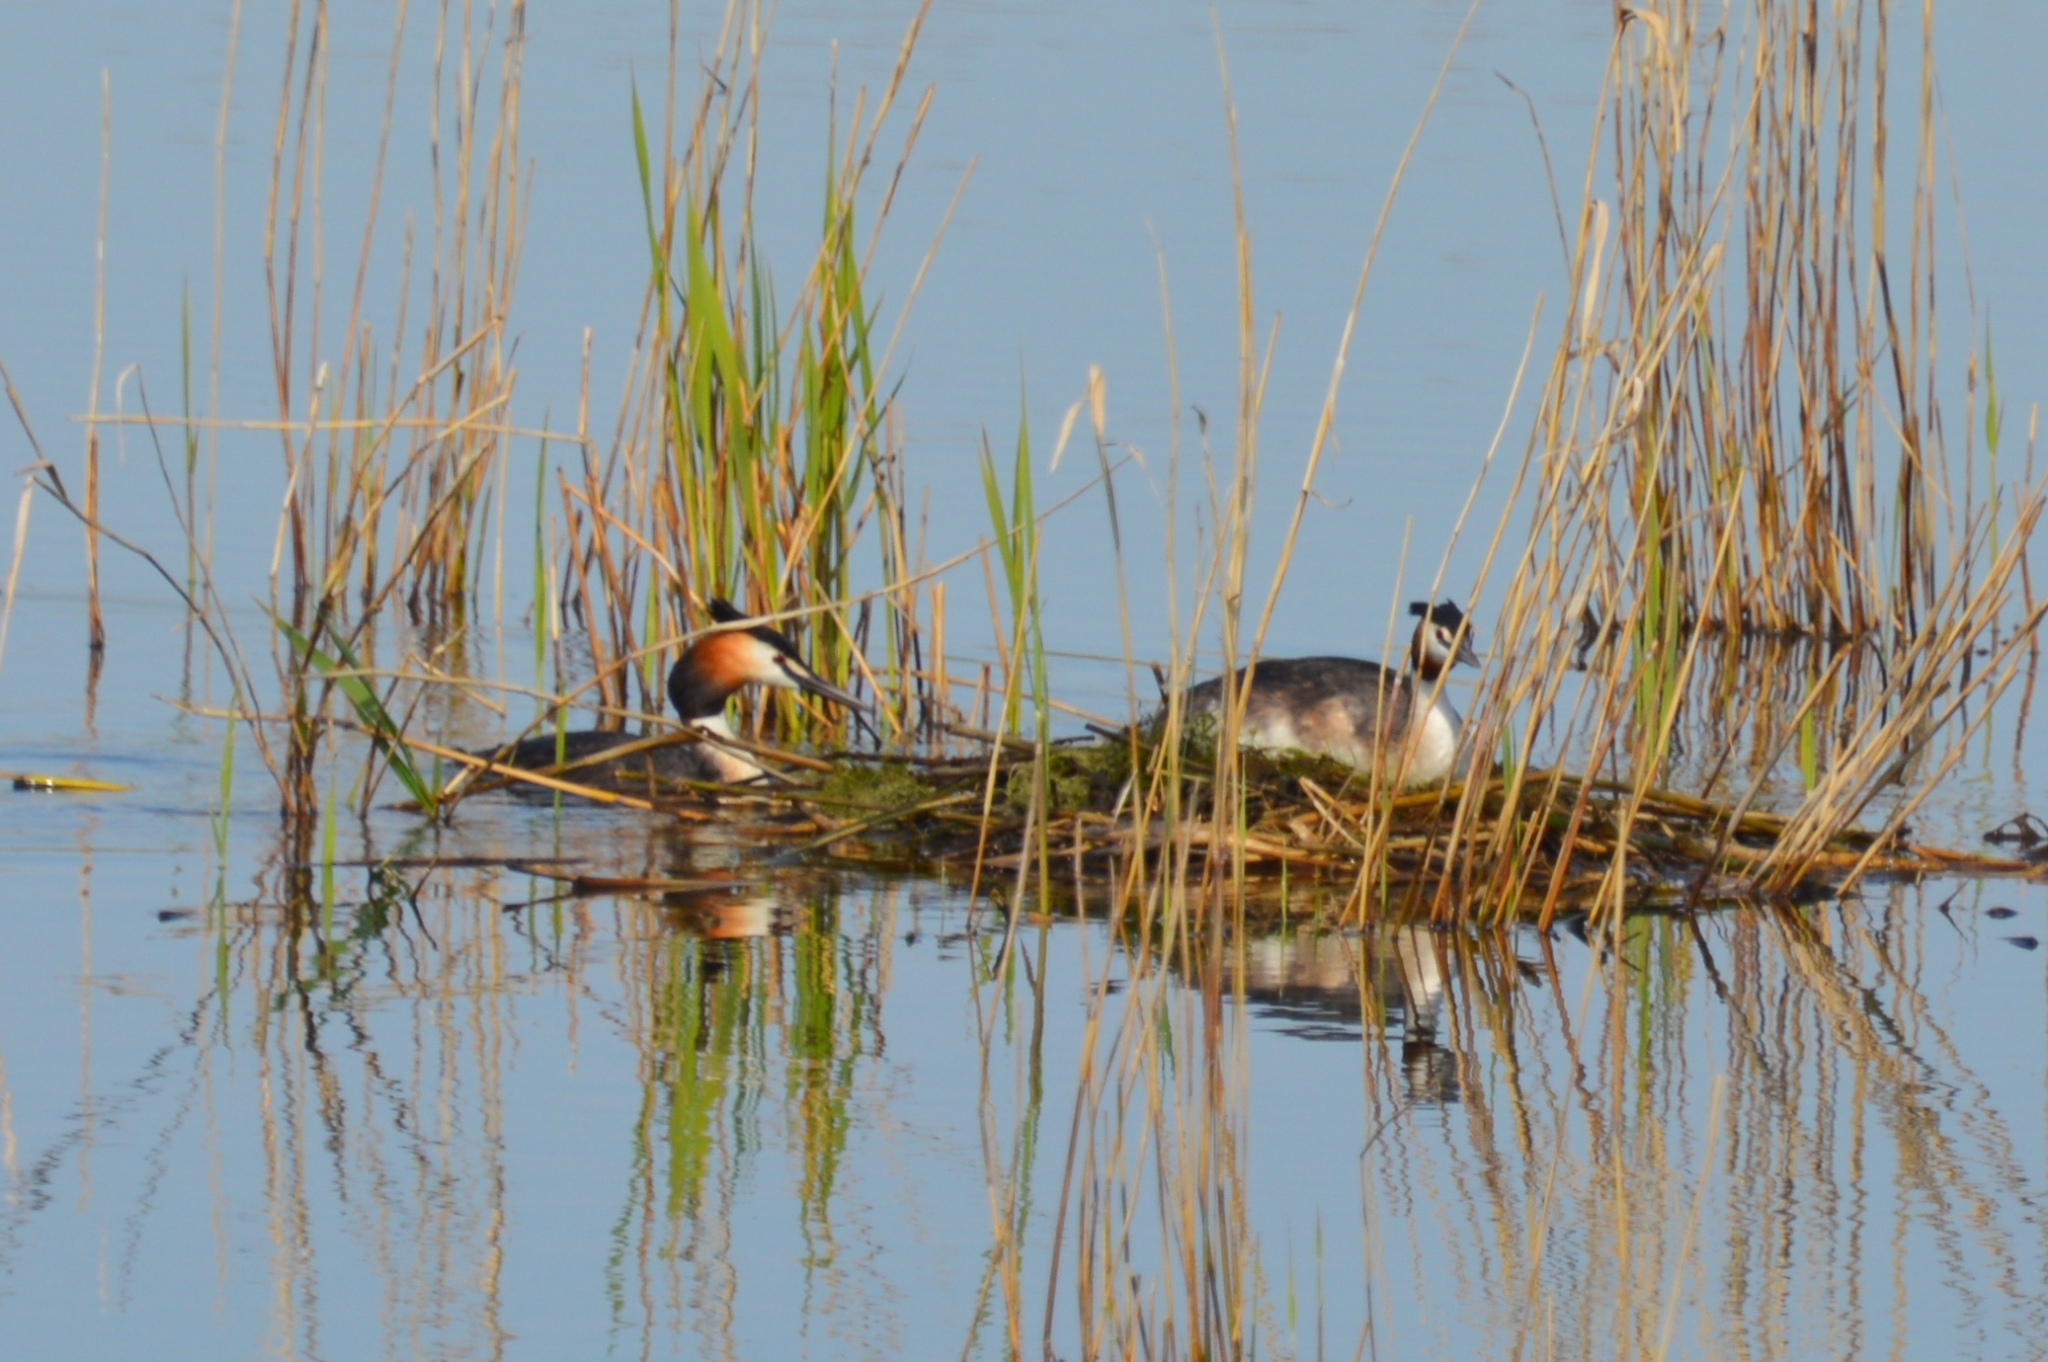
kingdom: Animalia
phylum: Chordata
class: Aves
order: Podicipediformes
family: Podicipedidae
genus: Podiceps
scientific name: Podiceps cristatus
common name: Great crested grebe
